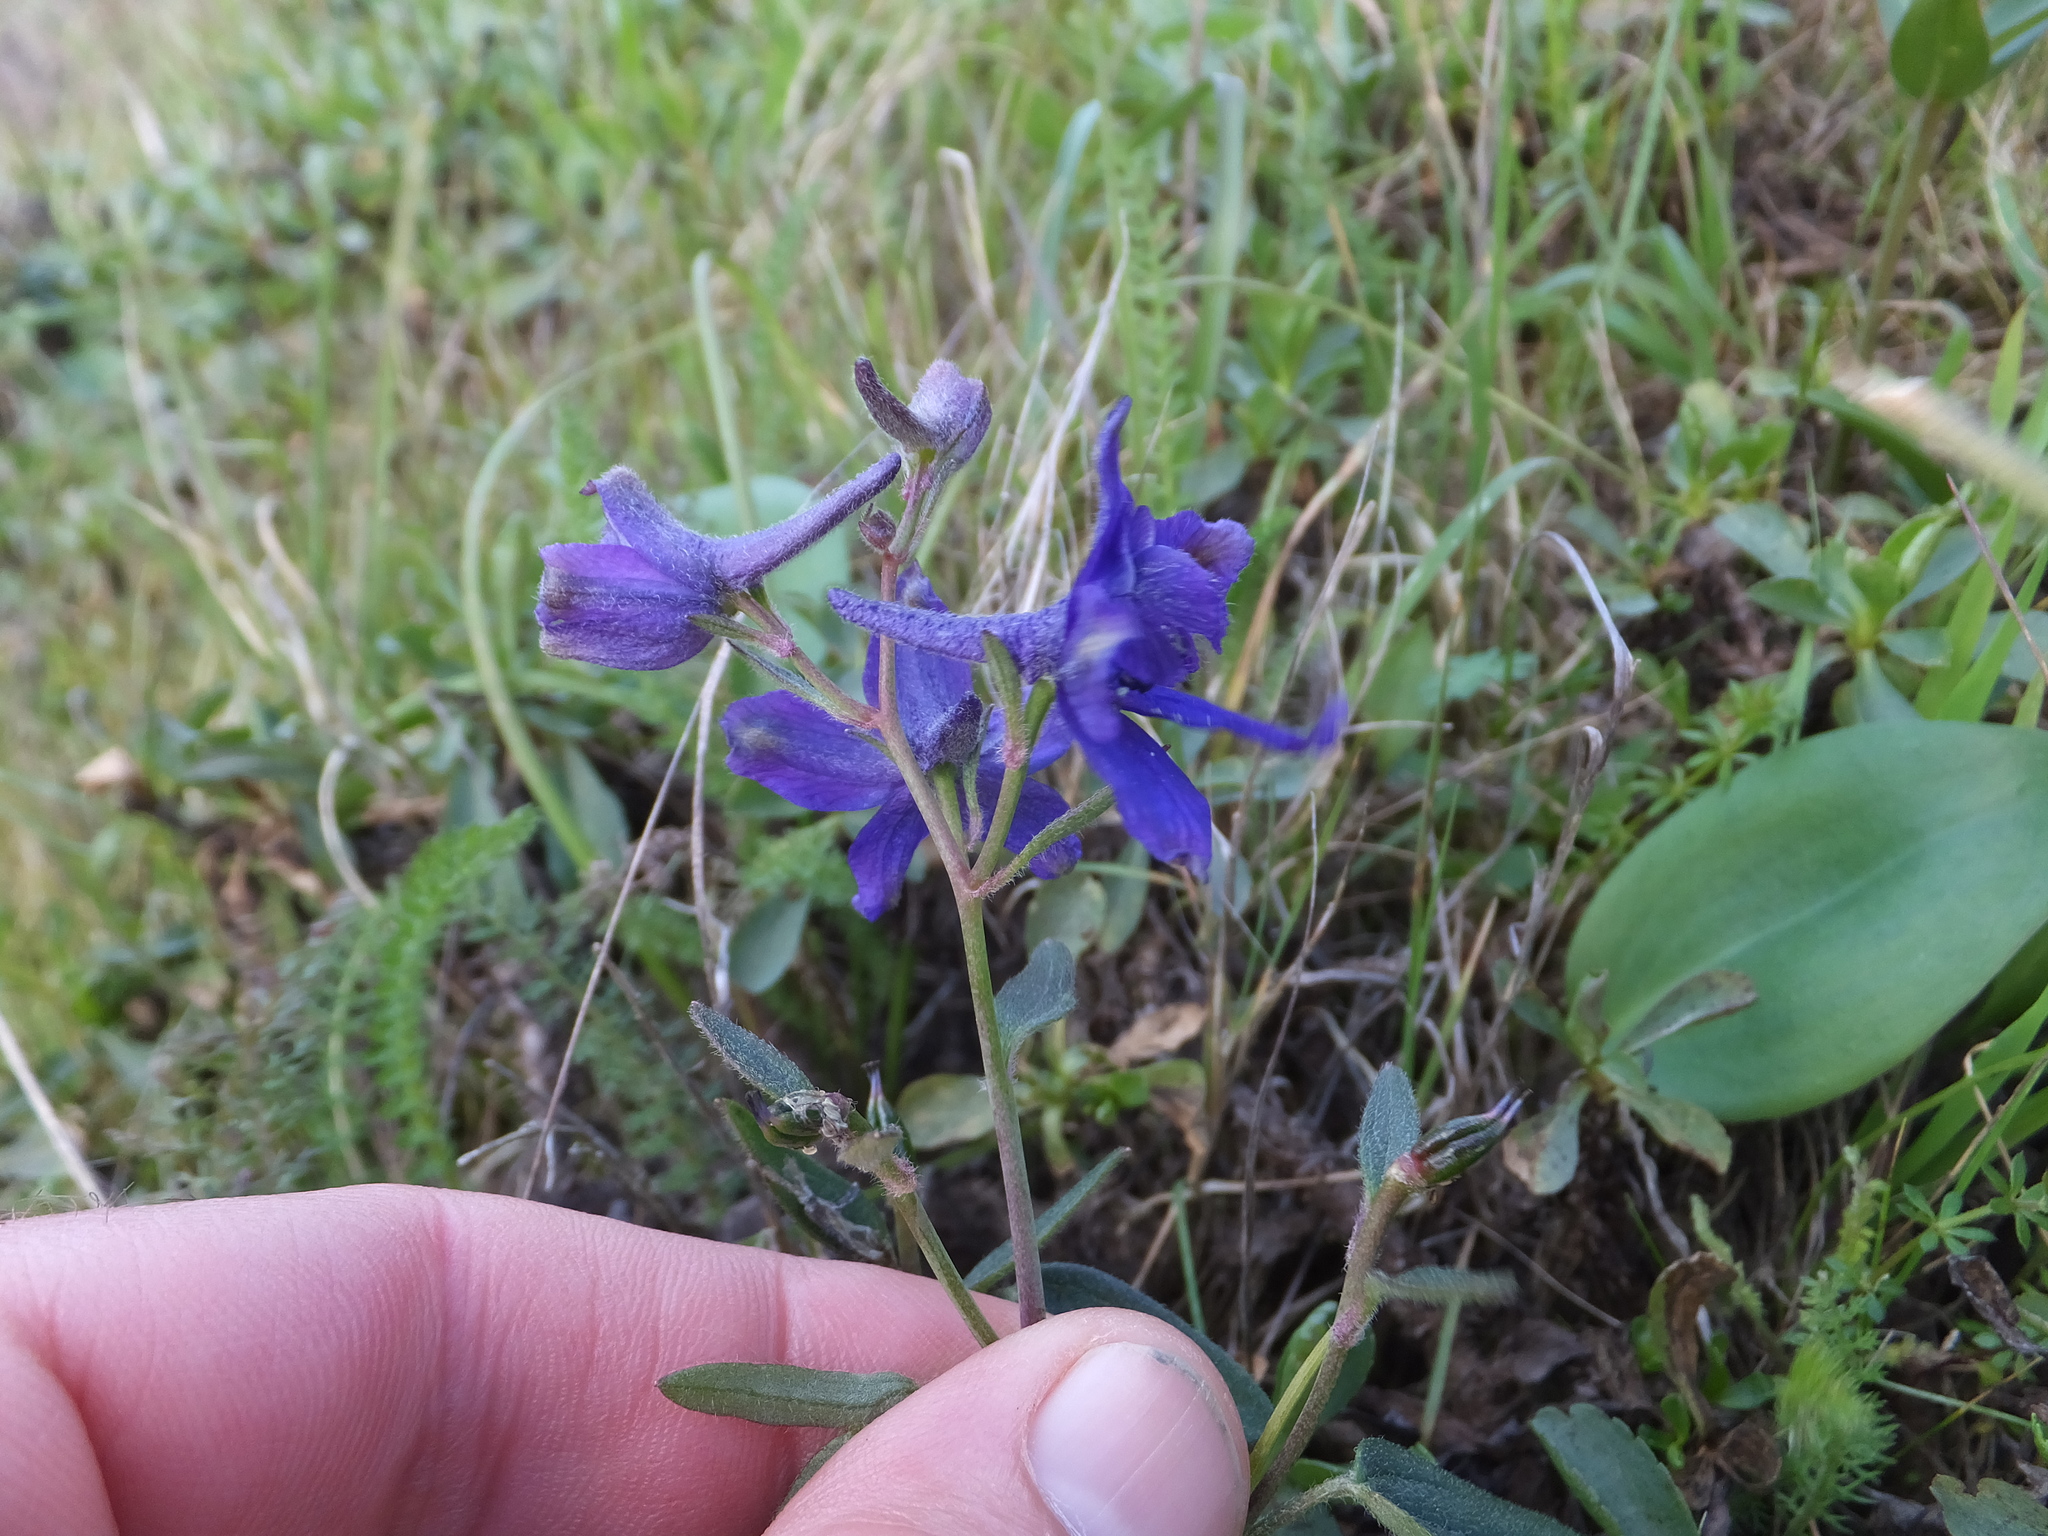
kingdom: Plantae
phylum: Tracheophyta
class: Magnoliopsida
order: Ranunculales
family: Ranunculaceae
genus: Delphinium
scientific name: Delphinium decorum
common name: Coast larkspur
